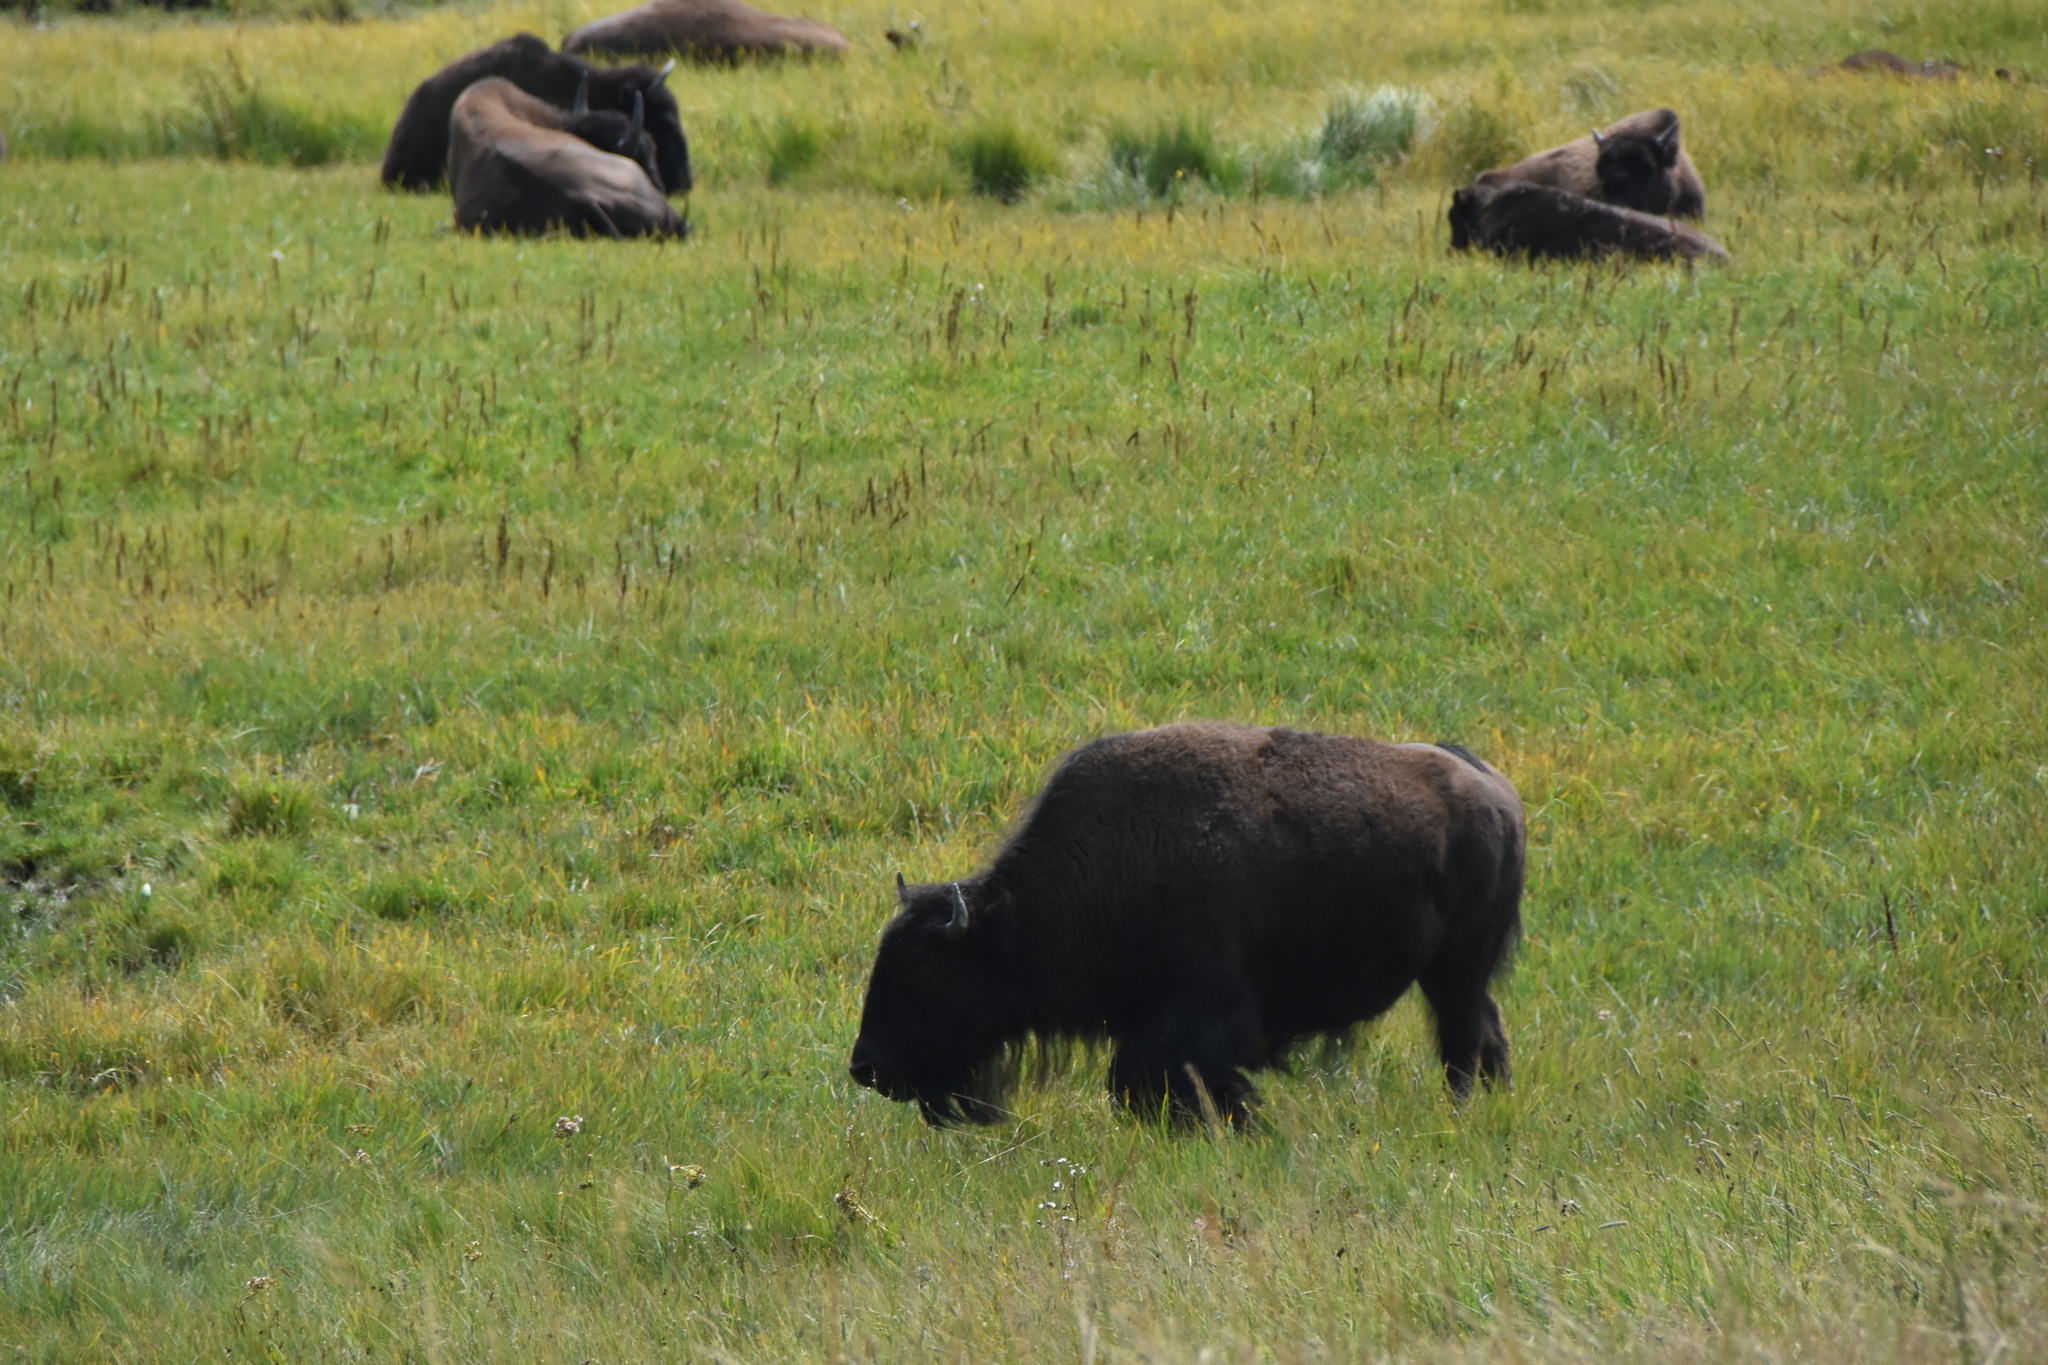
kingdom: Animalia
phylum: Chordata
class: Mammalia
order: Artiodactyla
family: Bovidae
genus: Bison
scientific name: Bison bison
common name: American bison
